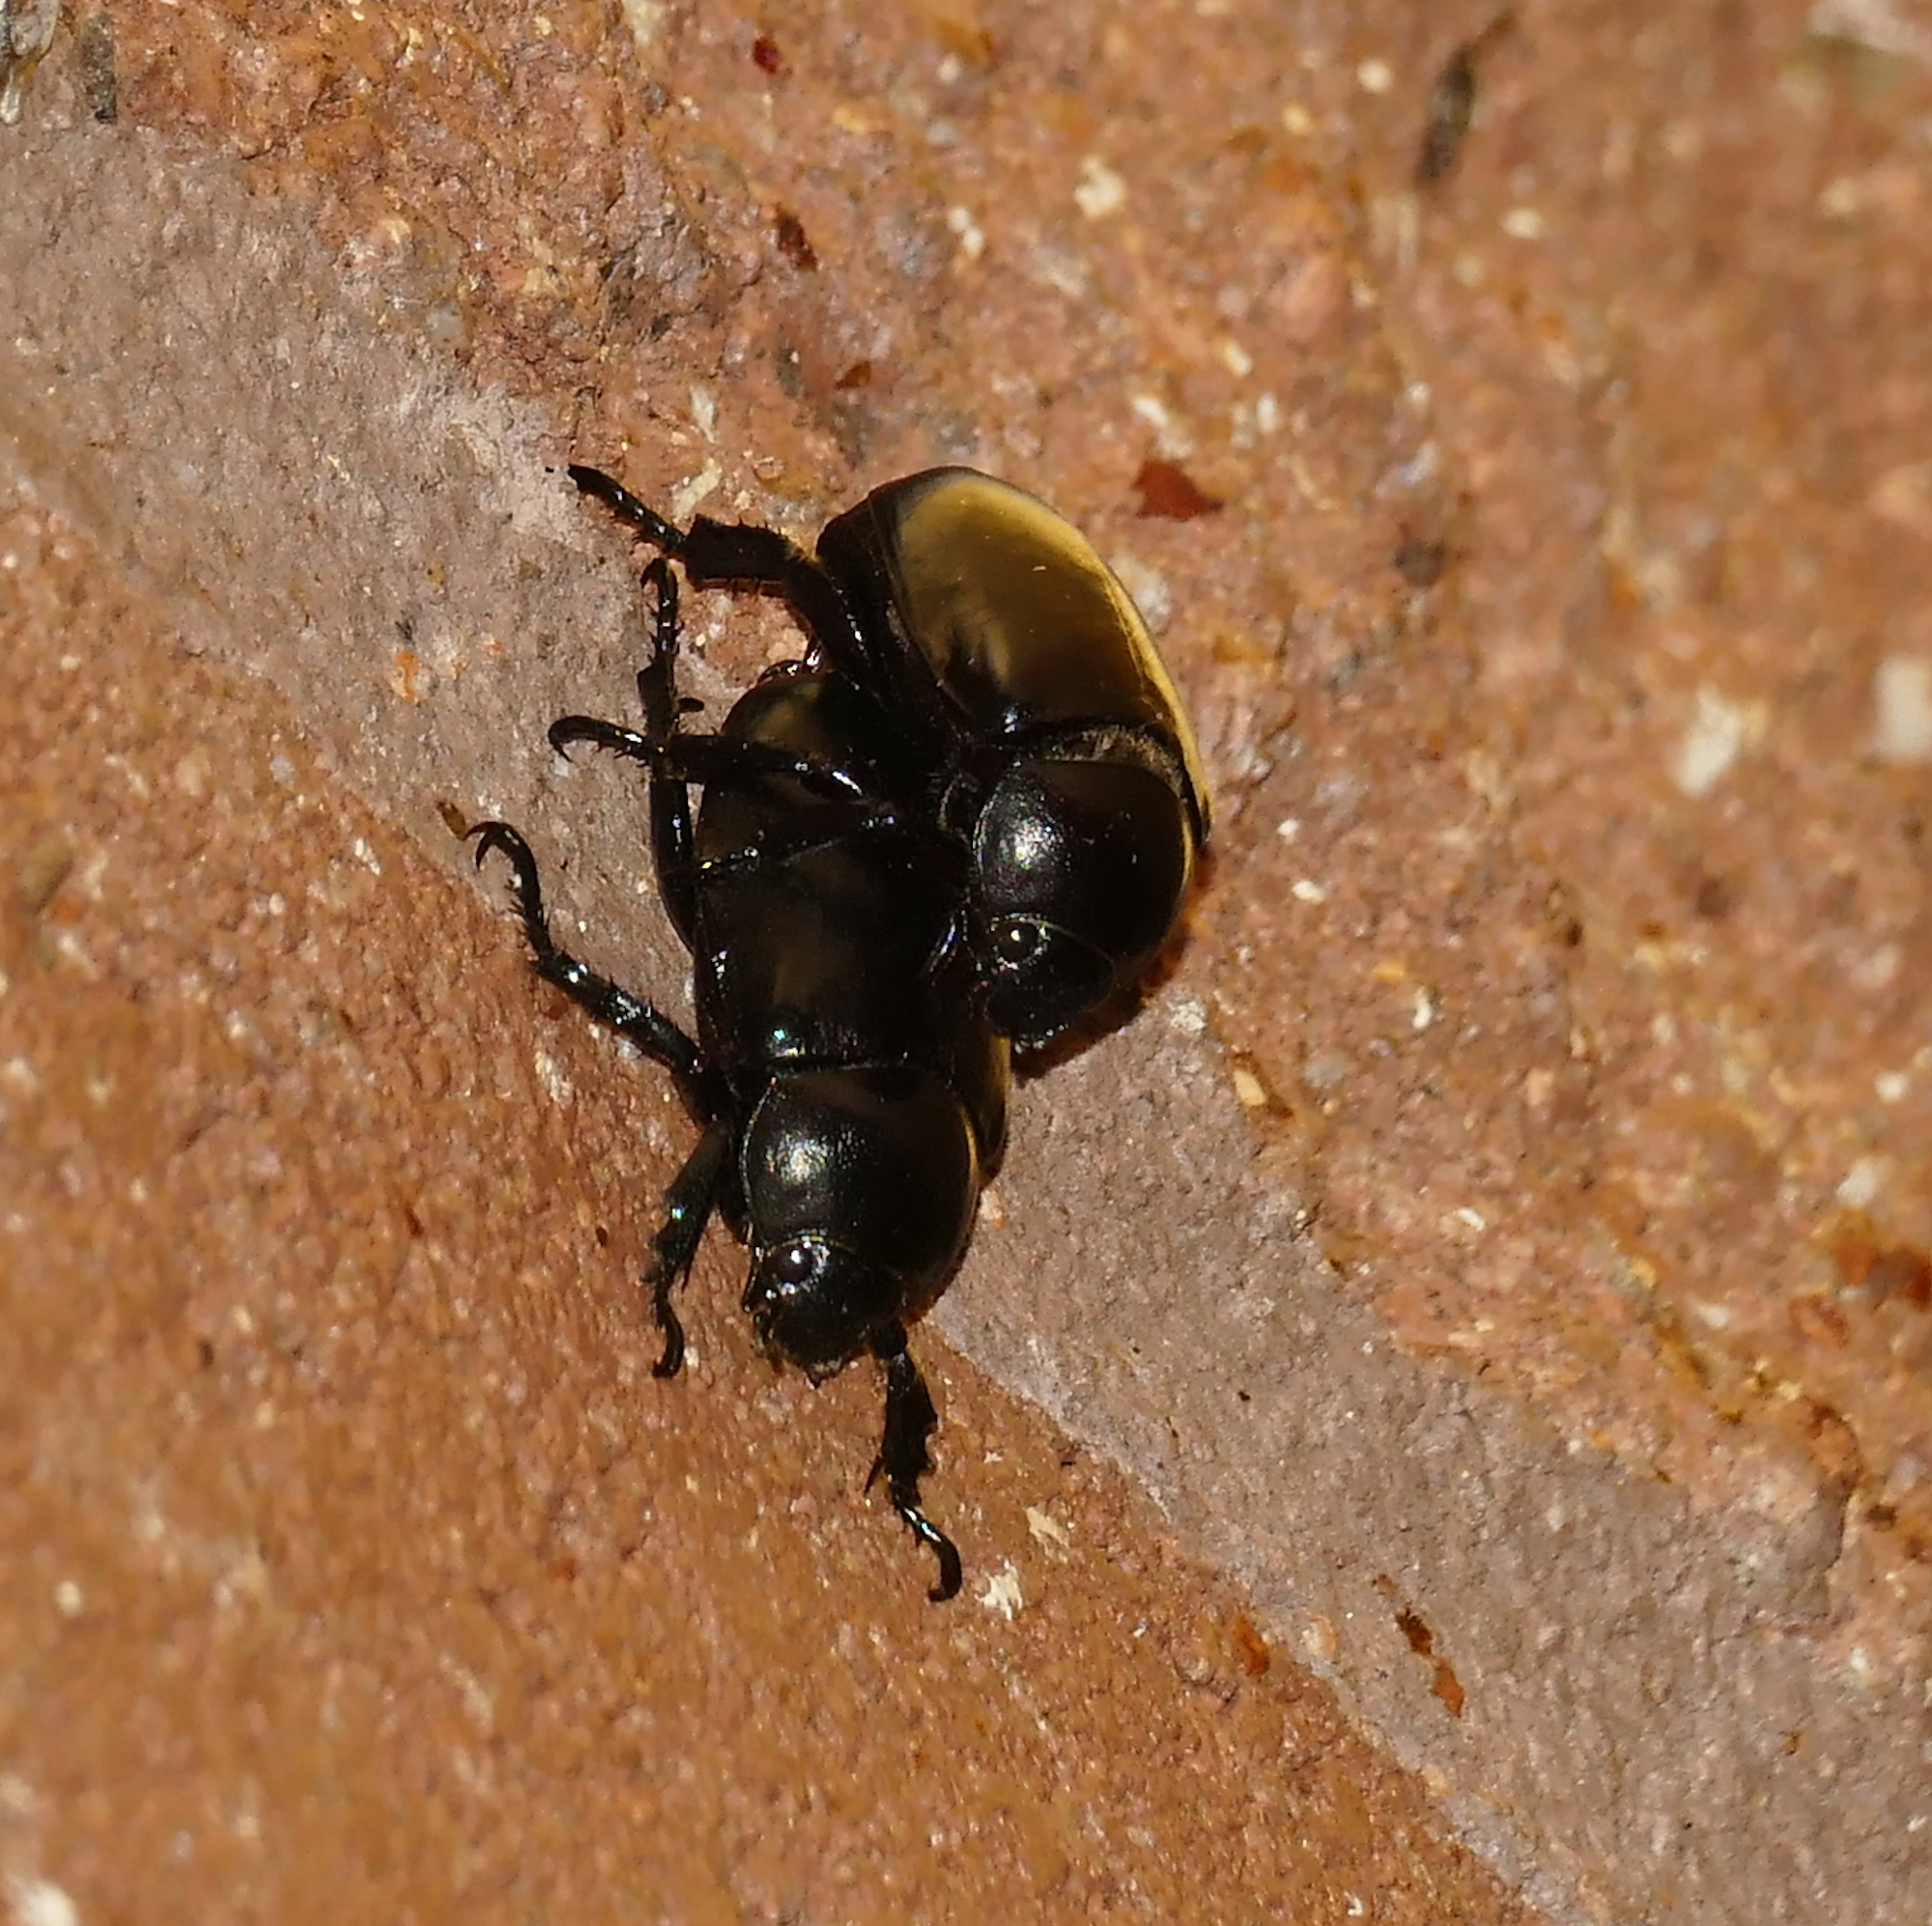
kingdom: Animalia
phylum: Arthropoda
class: Insecta
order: Coleoptera
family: Scarabaeidae
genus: Pelidnota
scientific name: Pelidnota lugubris
